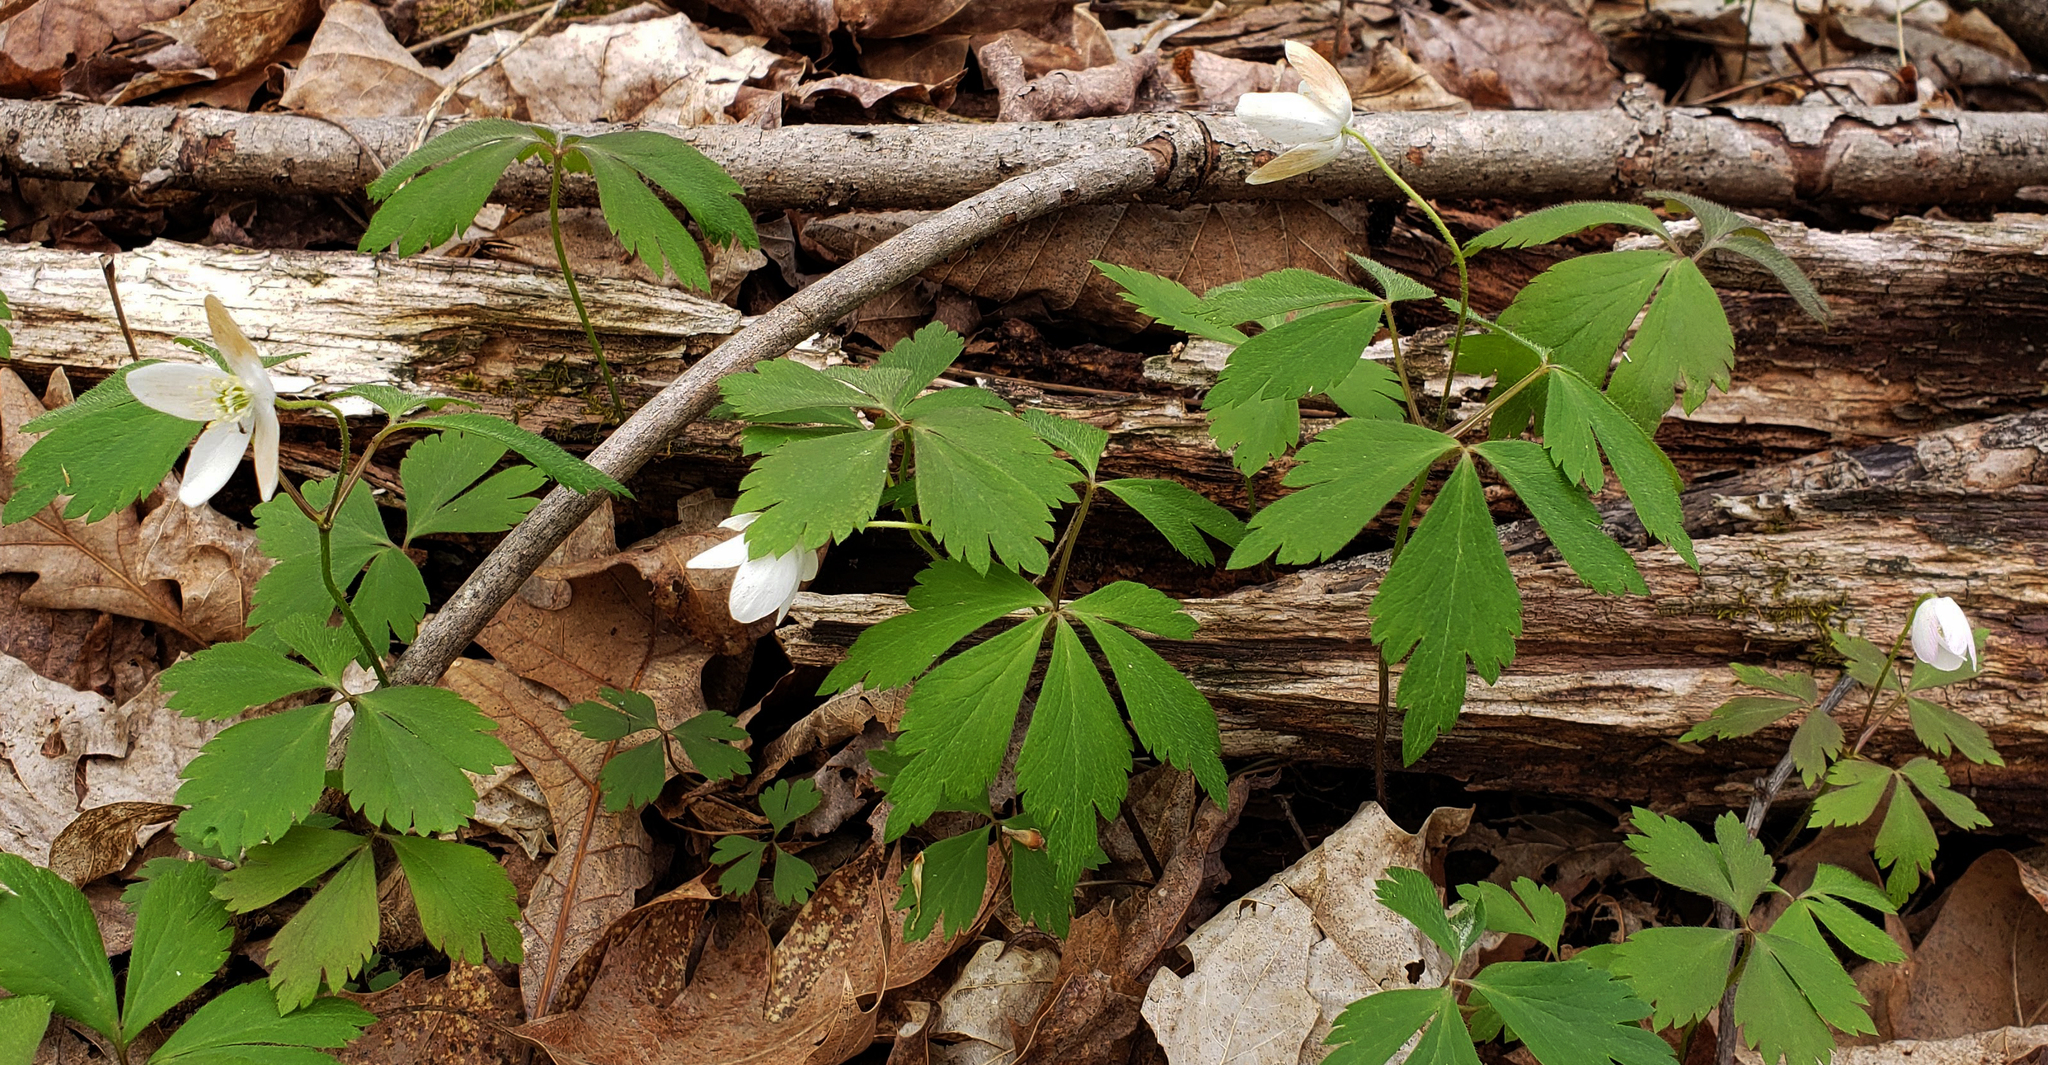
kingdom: Plantae
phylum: Tracheophyta
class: Magnoliopsida
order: Ranunculales
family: Ranunculaceae
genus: Anemone
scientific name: Anemone quinquefolia
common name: Wood anemone
